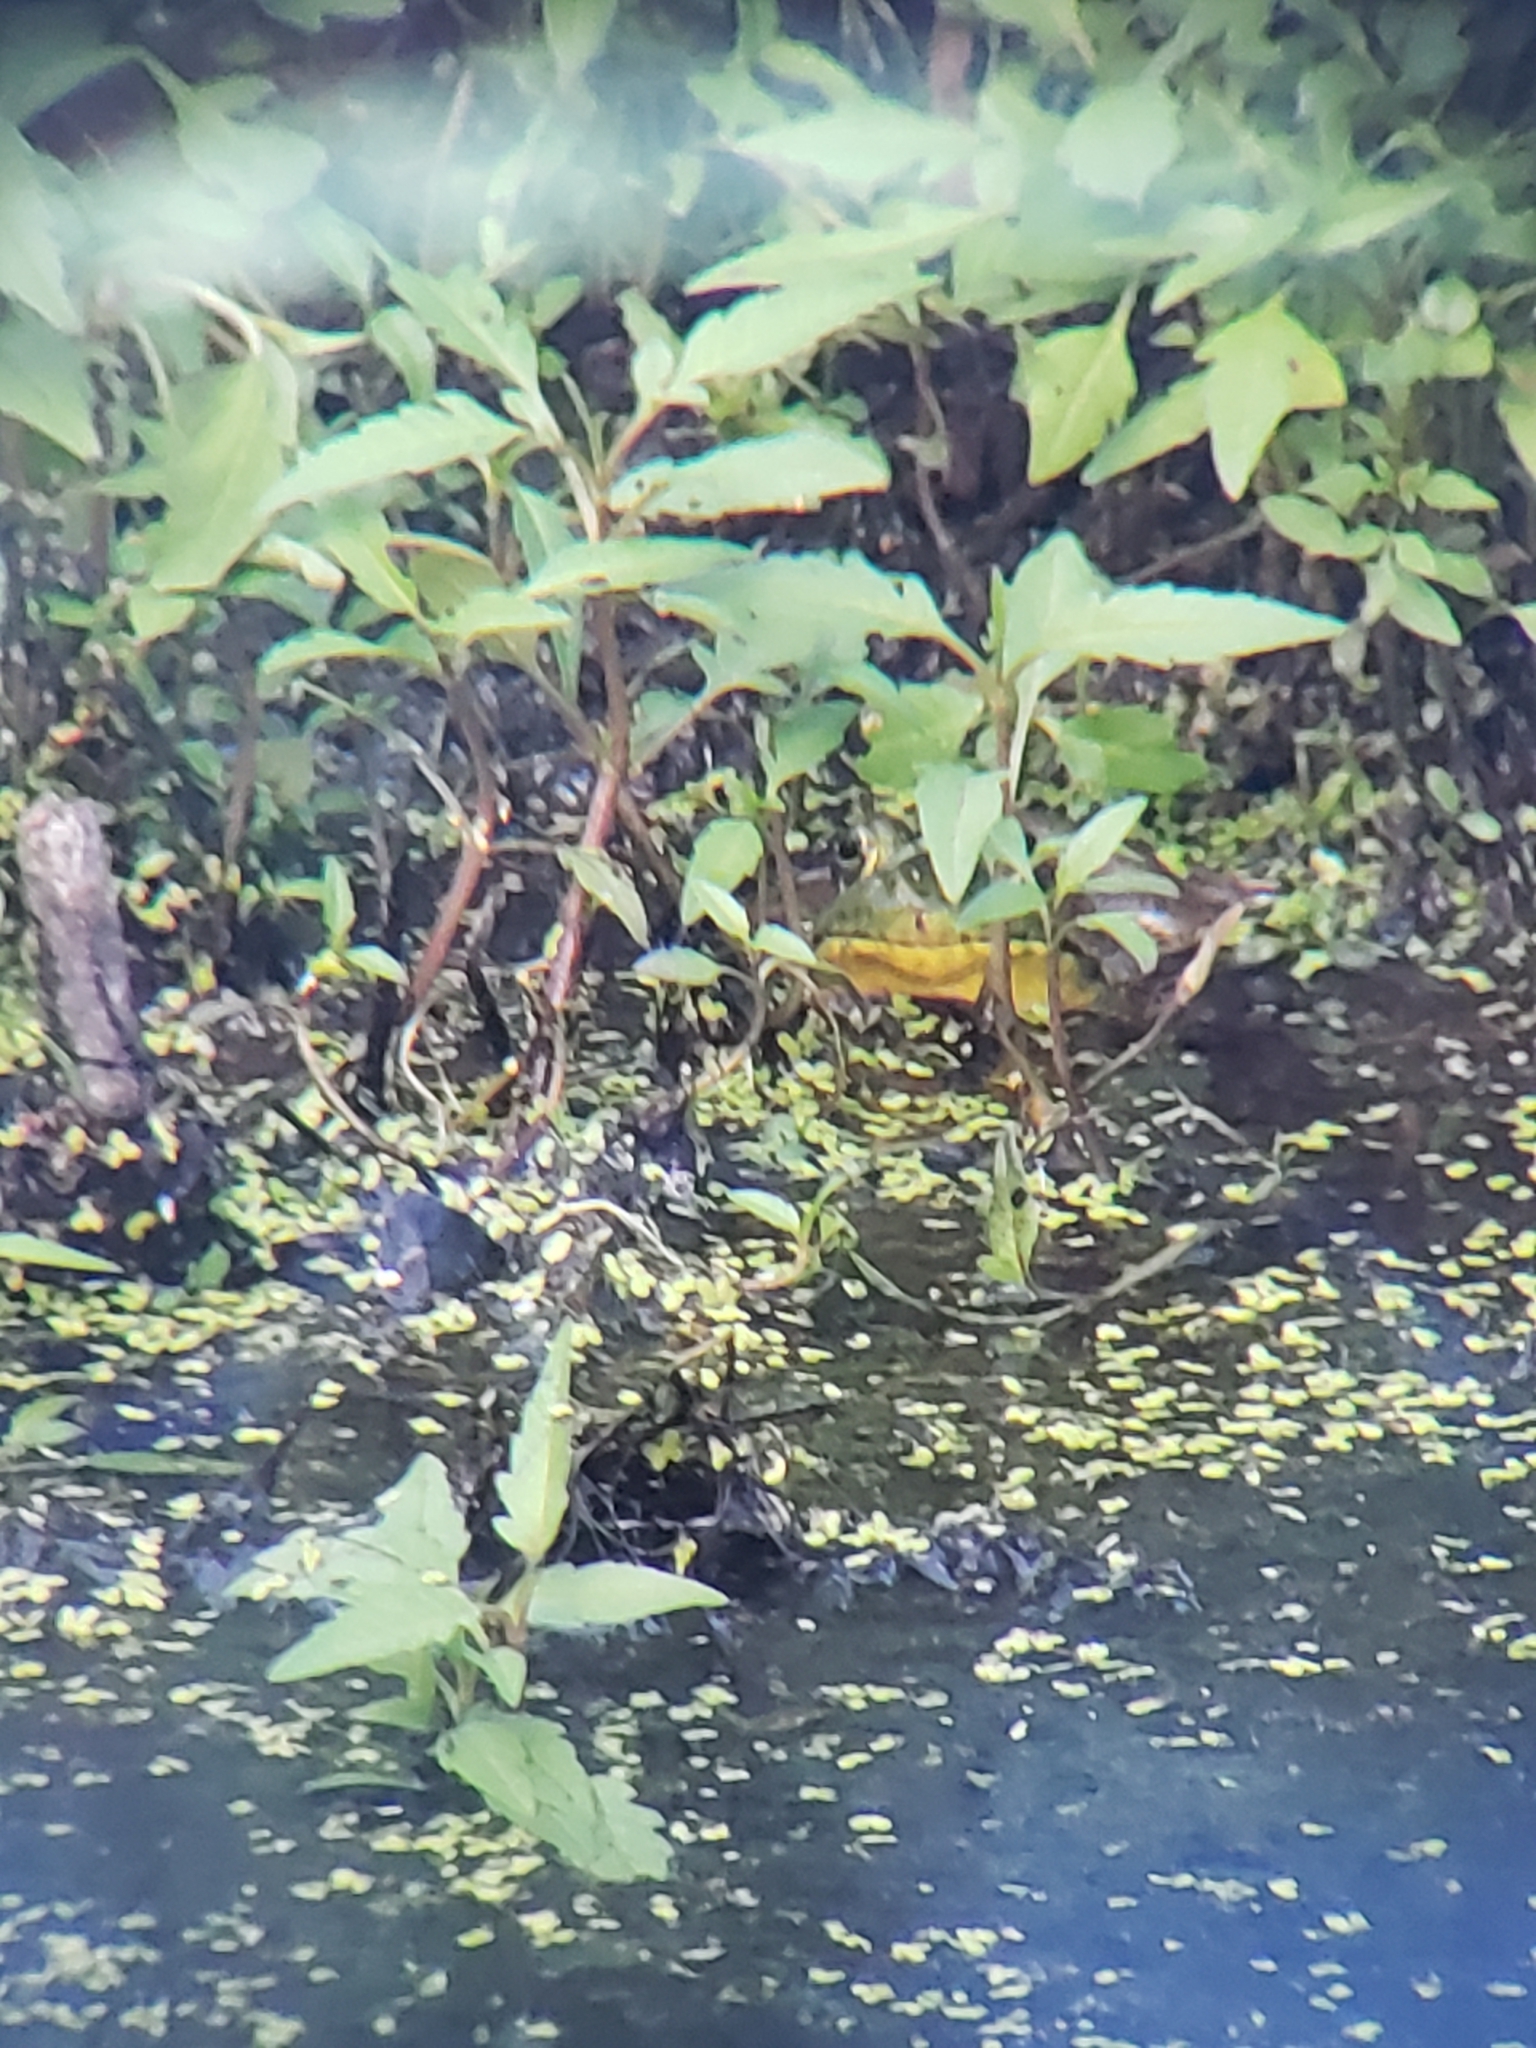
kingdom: Animalia
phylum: Chordata
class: Amphibia
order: Anura
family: Ranidae
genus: Lithobates
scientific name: Lithobates clamitans
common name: Green frog
